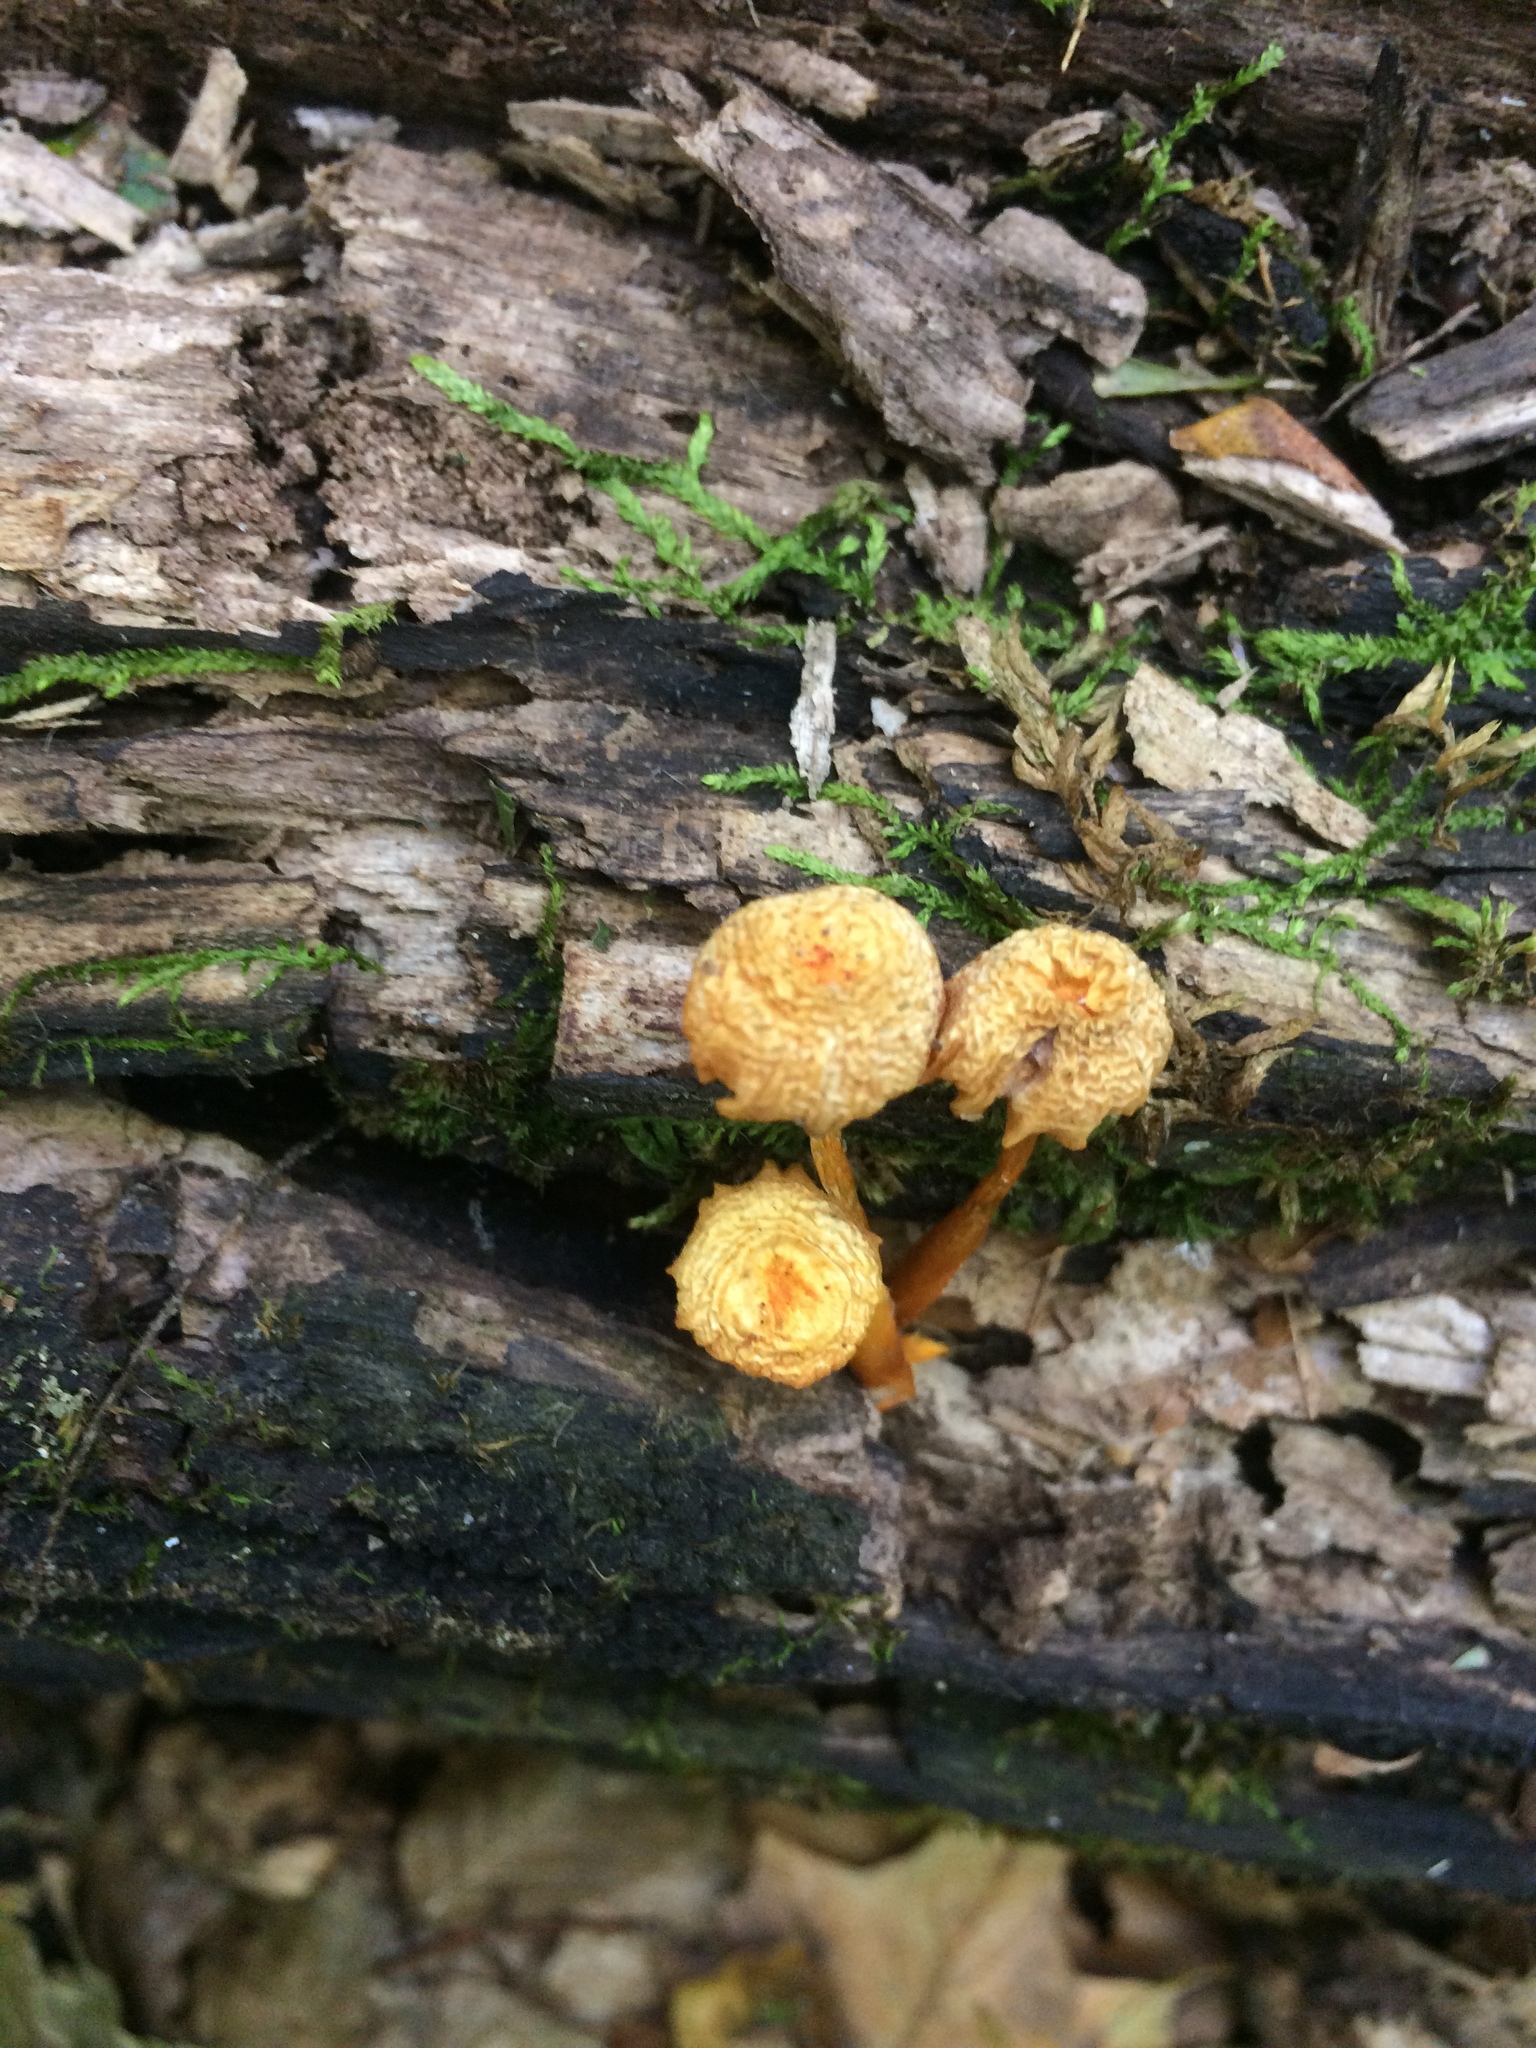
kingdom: Fungi
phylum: Basidiomycota
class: Agaricomycetes
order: Agaricales
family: Mycenaceae
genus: Mycena
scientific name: Mycena leaiana
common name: Orange mycena
